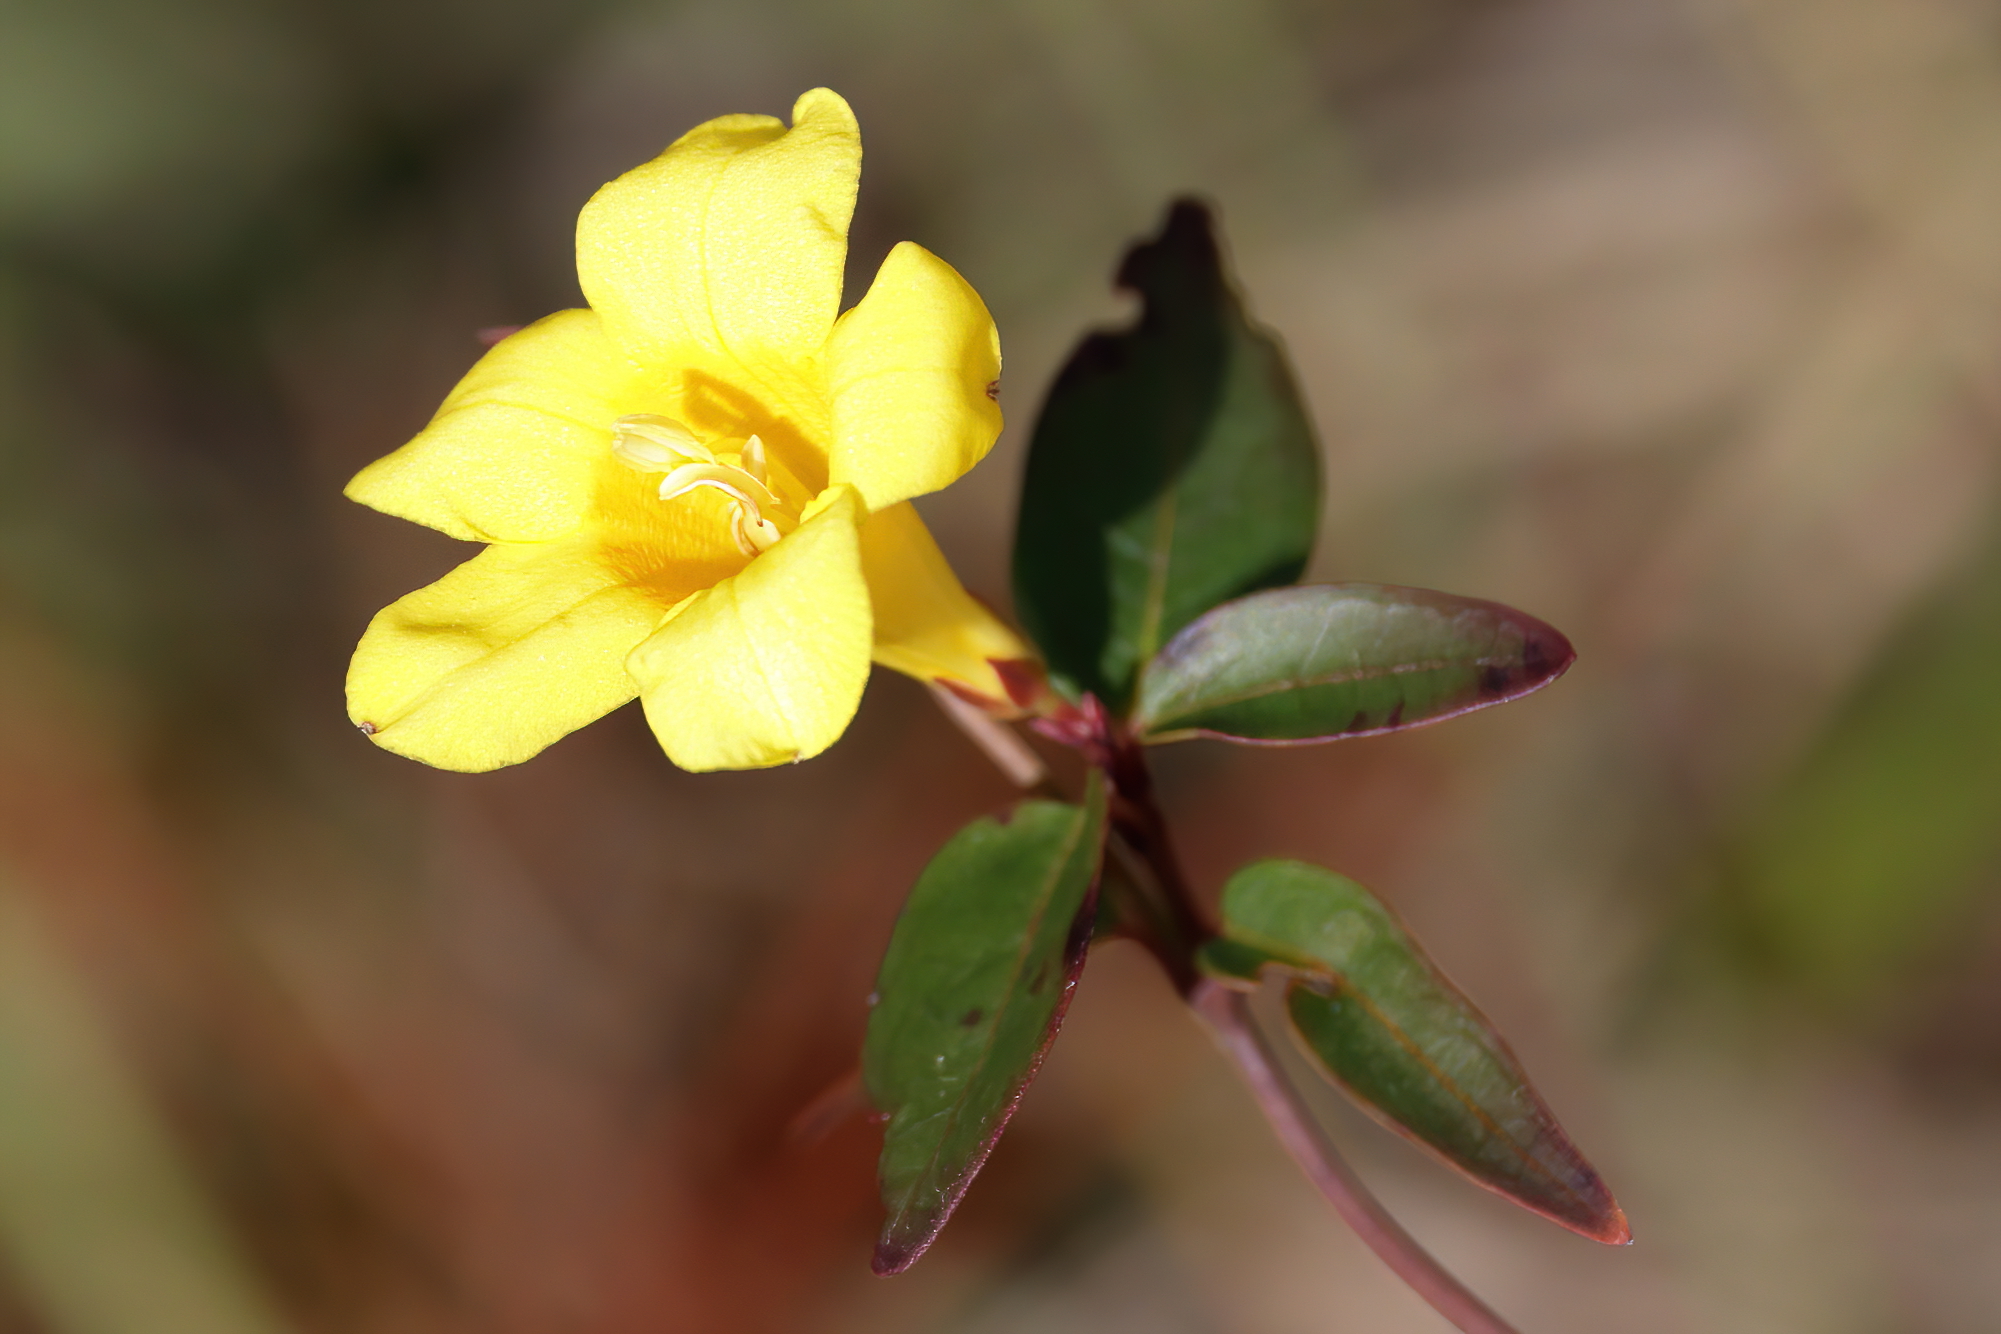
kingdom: Plantae
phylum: Tracheophyta
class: Magnoliopsida
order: Gentianales
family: Gelsemiaceae
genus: Gelsemium
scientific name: Gelsemium sempervirens
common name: Carolina-jasmine
